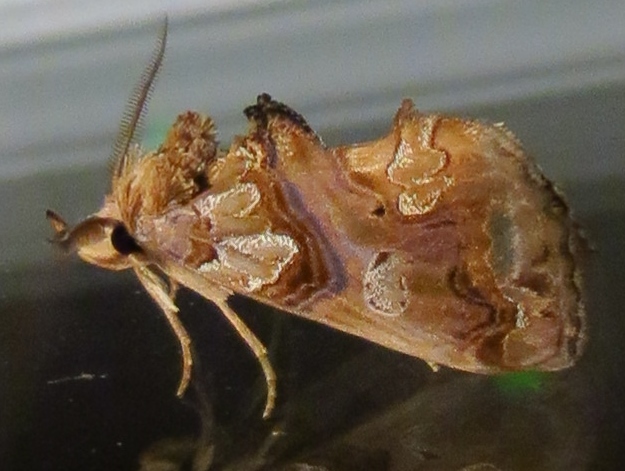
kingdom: Animalia
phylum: Arthropoda
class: Insecta
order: Lepidoptera
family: Erebidae
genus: Plusiodonta
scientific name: Plusiodonta compressipalpis
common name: Moonseed moth
